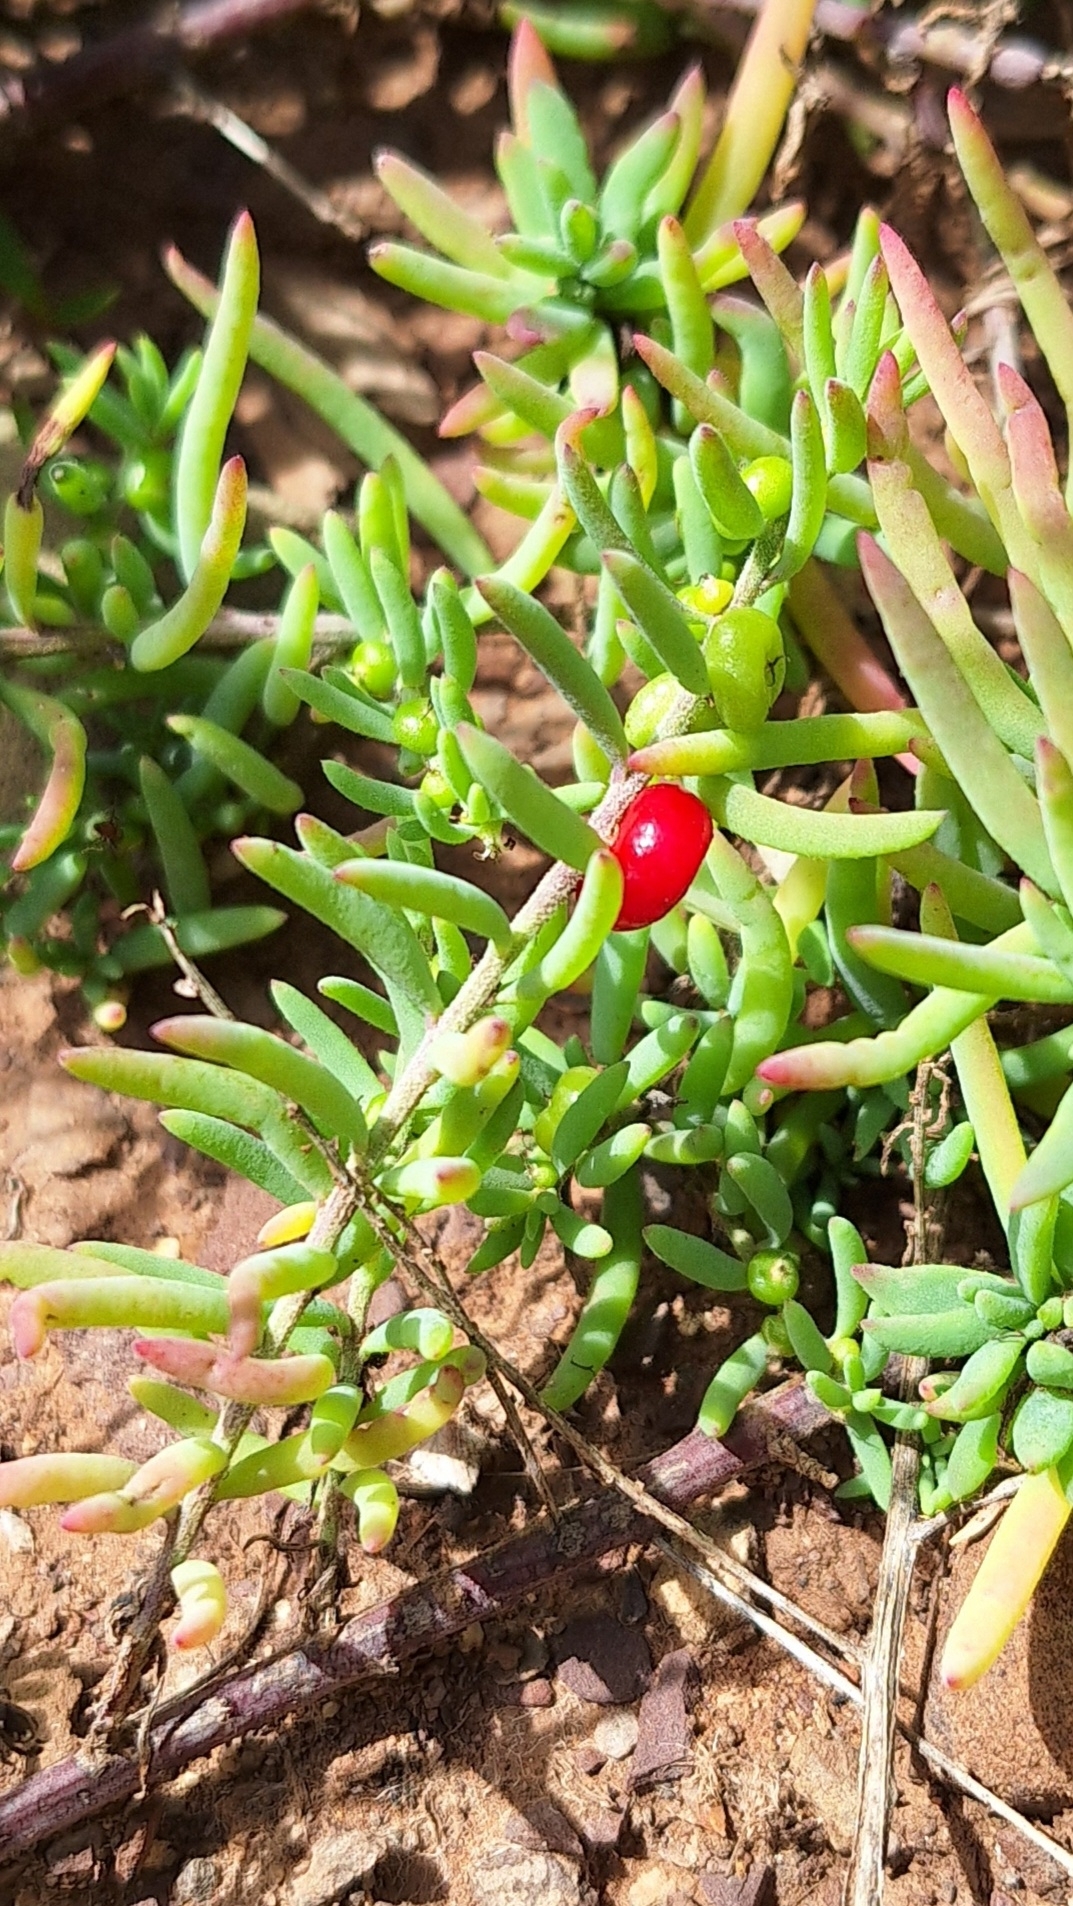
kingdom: Plantae
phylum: Tracheophyta
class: Magnoliopsida
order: Caryophyllales
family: Amaranthaceae
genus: Enchylaena
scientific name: Enchylaena tomentosa
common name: Ruby saltbush
